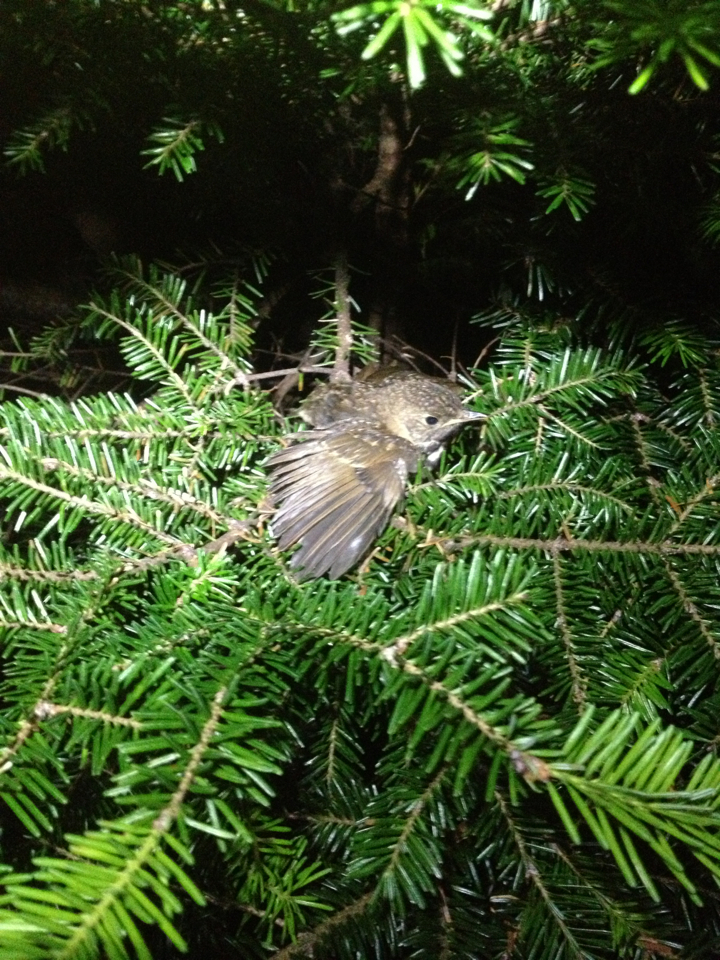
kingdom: Animalia
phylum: Chordata
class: Aves
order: Passeriformes
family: Turdidae
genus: Catharus
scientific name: Catharus bicknelli
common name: Bicknell's thrush
